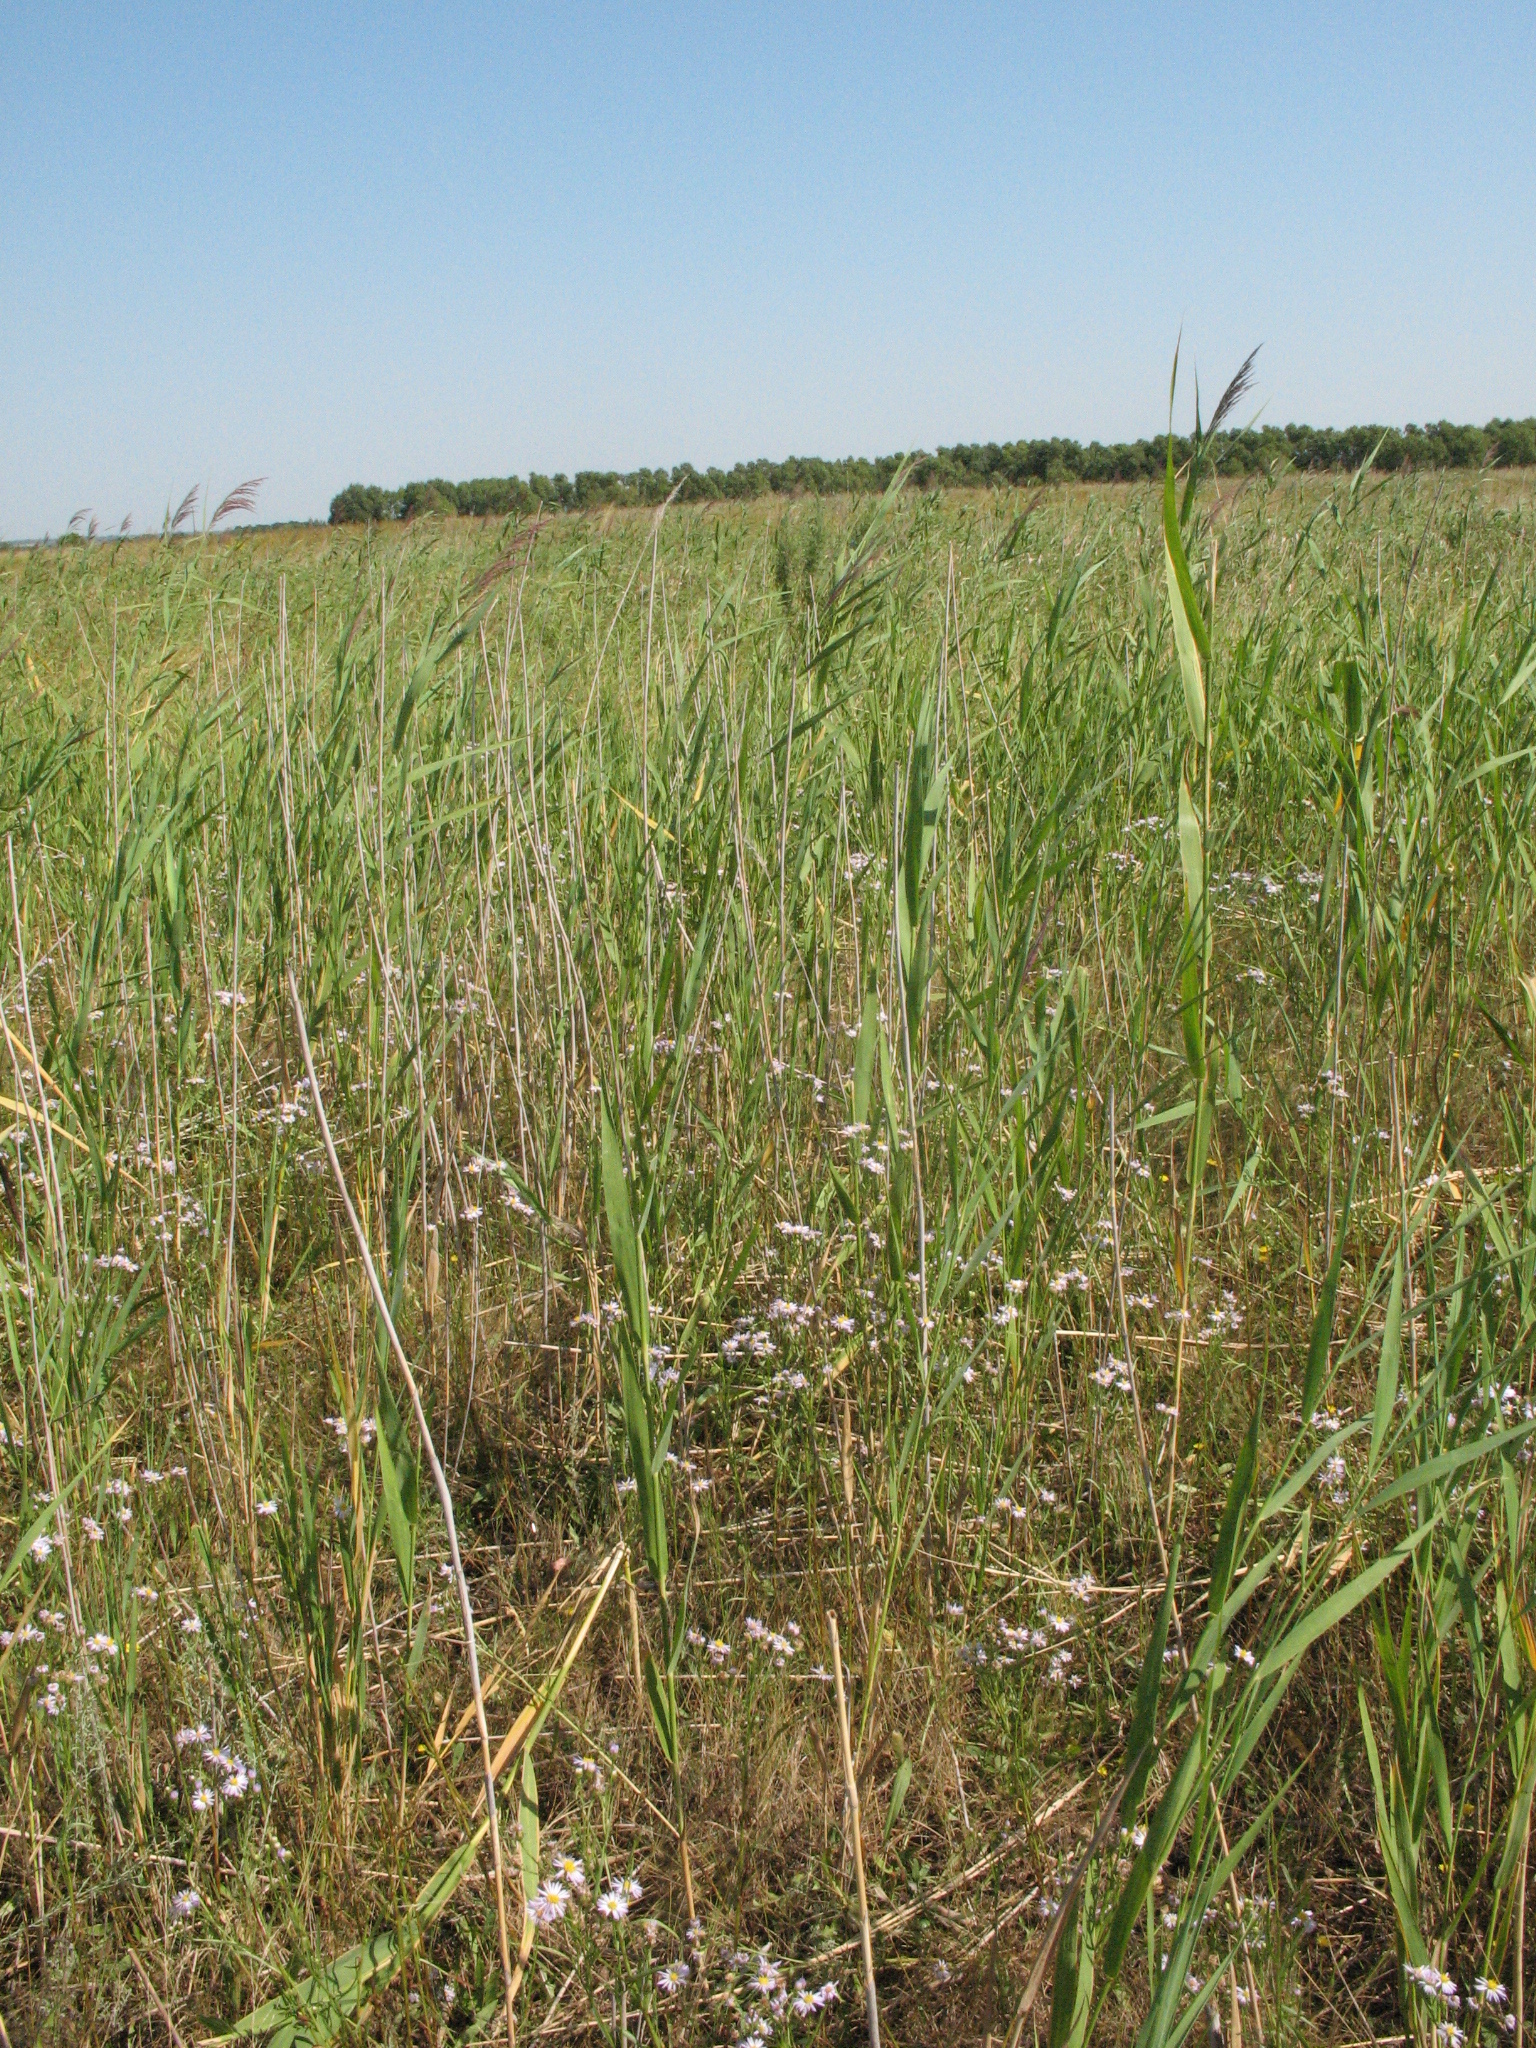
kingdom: Plantae
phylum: Tracheophyta
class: Magnoliopsida
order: Asterales
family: Asteraceae
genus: Tripolium
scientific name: Tripolium pannonicum
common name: Sea aster
